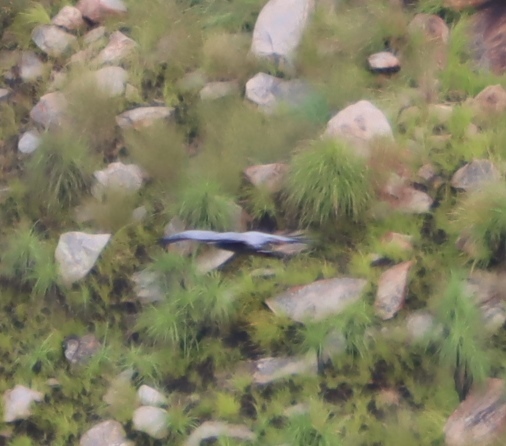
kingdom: Animalia
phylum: Chordata
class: Aves
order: Accipitriformes
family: Accipitridae
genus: Polyboroides
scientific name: Polyboroides typus
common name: African harrier-hawk
